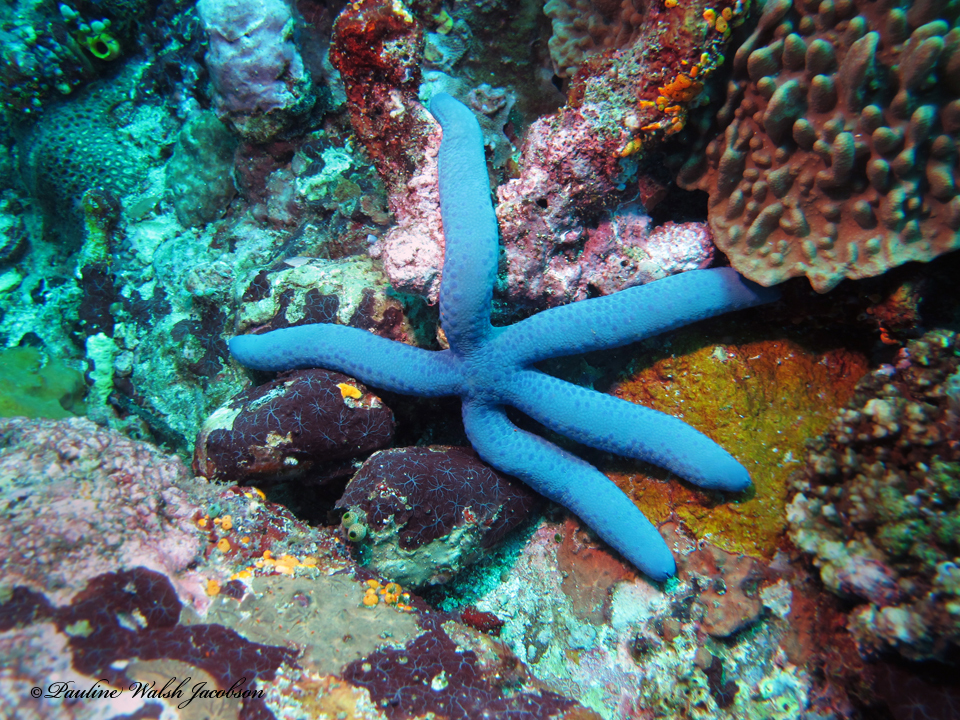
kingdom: Animalia
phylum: Echinodermata
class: Asteroidea
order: Valvatida
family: Ophidiasteridae
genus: Linckia
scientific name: Linckia laevigata
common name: Azure sea star
